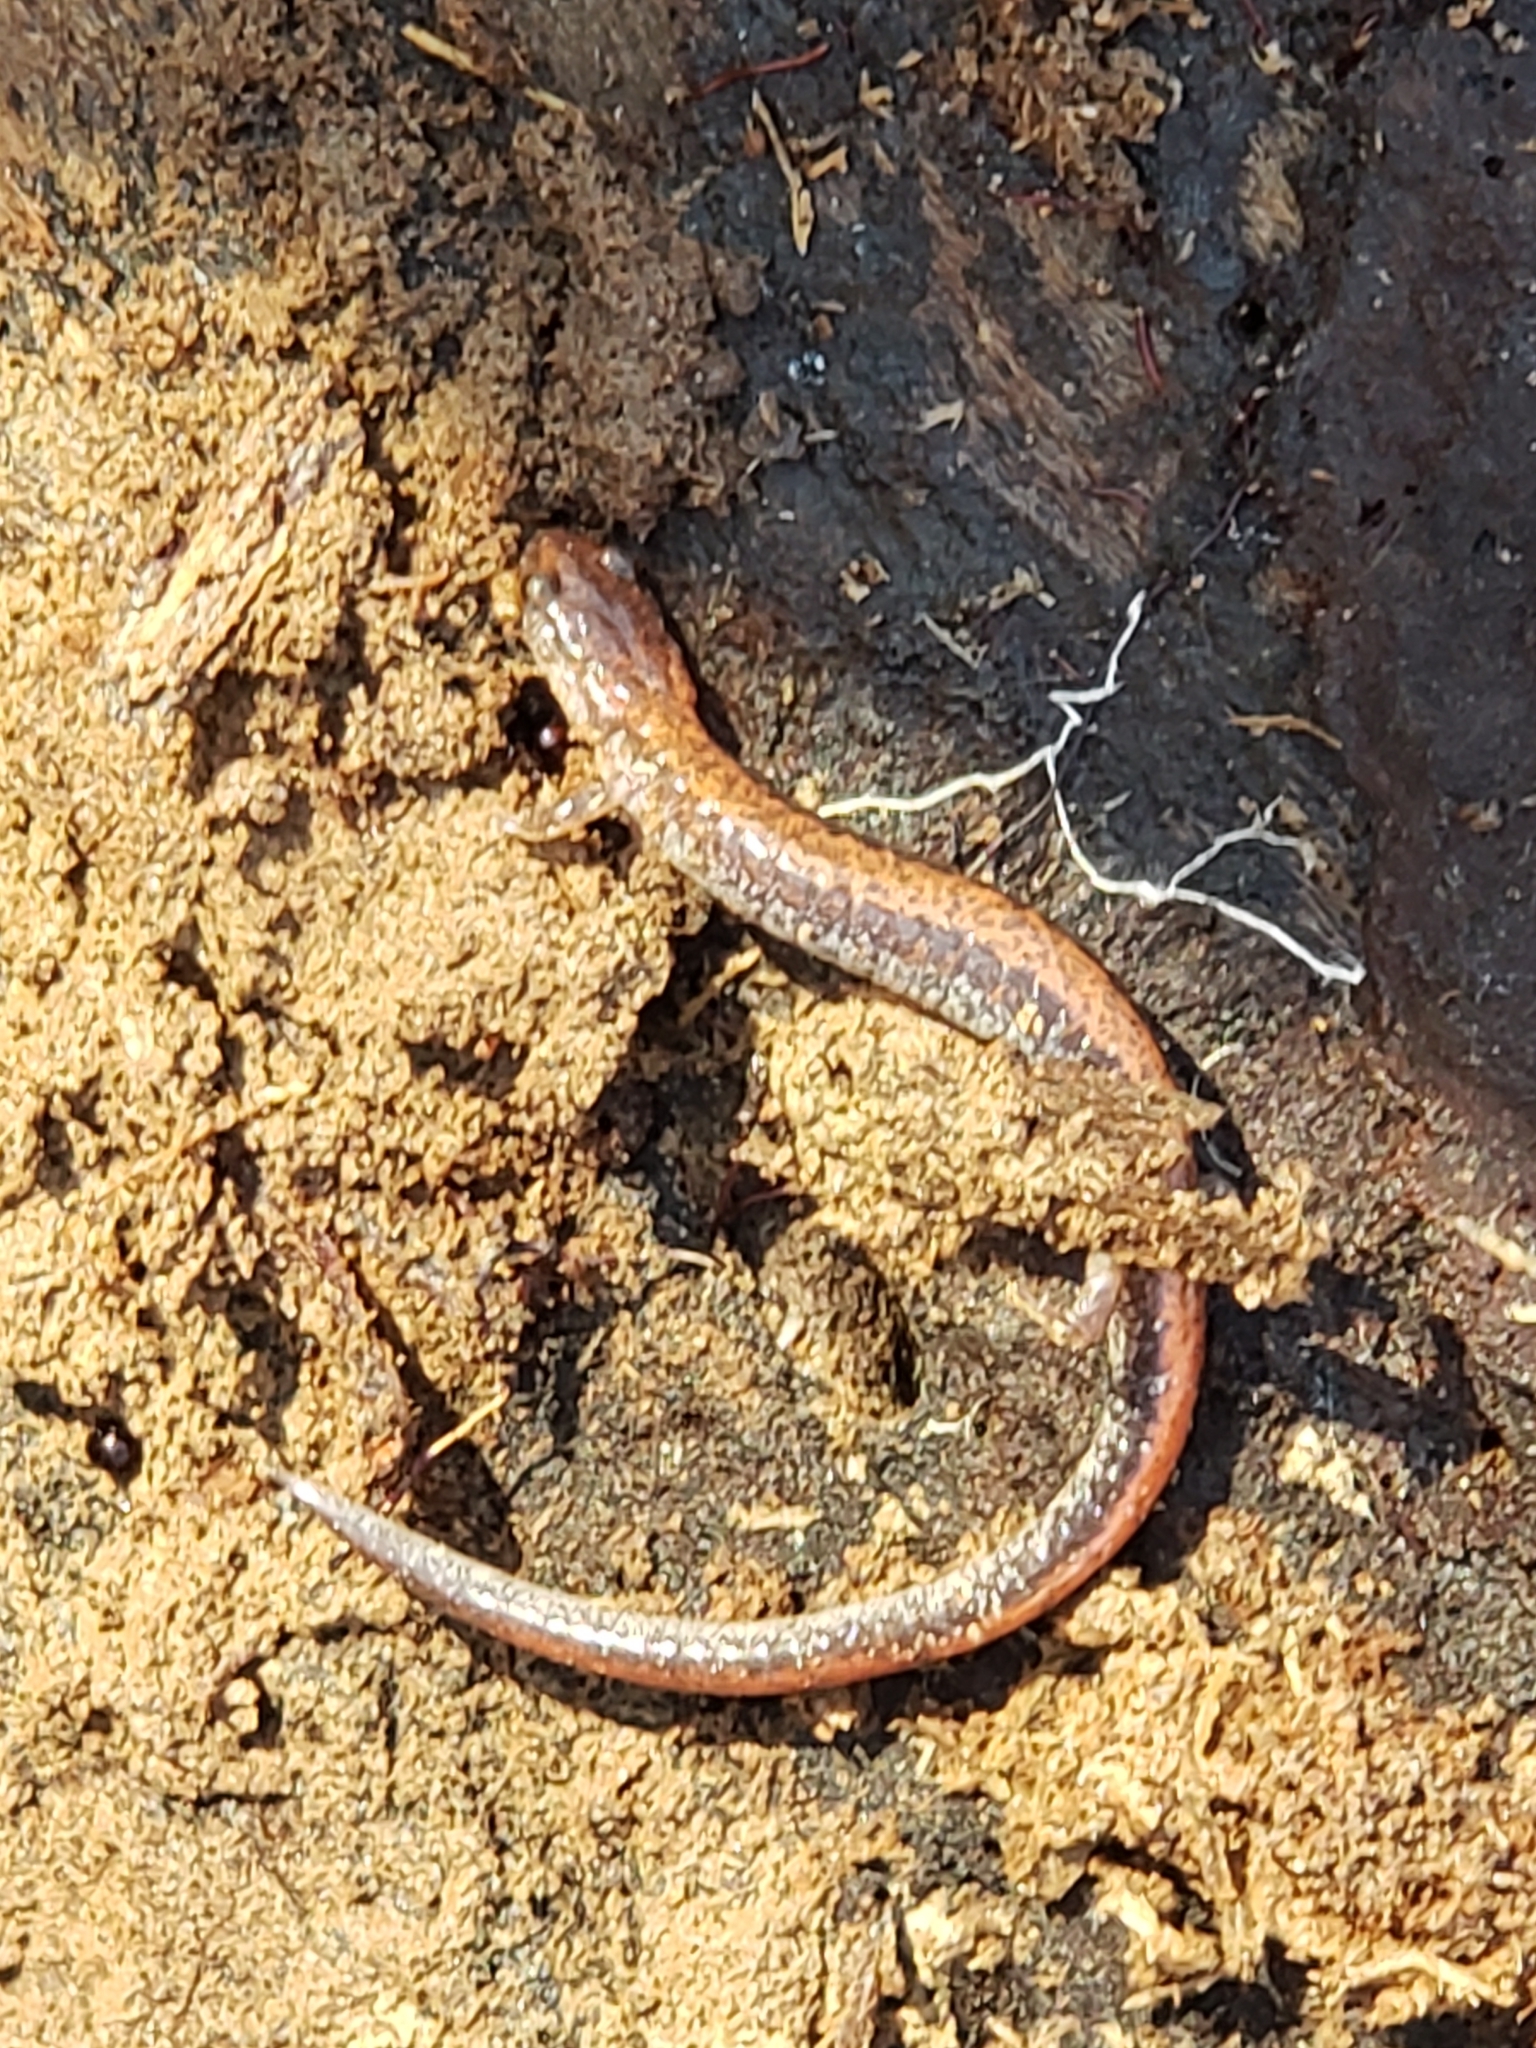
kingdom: Animalia
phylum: Chordata
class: Amphibia
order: Caudata
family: Plethodontidae
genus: Plethodon
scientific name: Plethodon cinereus
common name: Redback salamander
